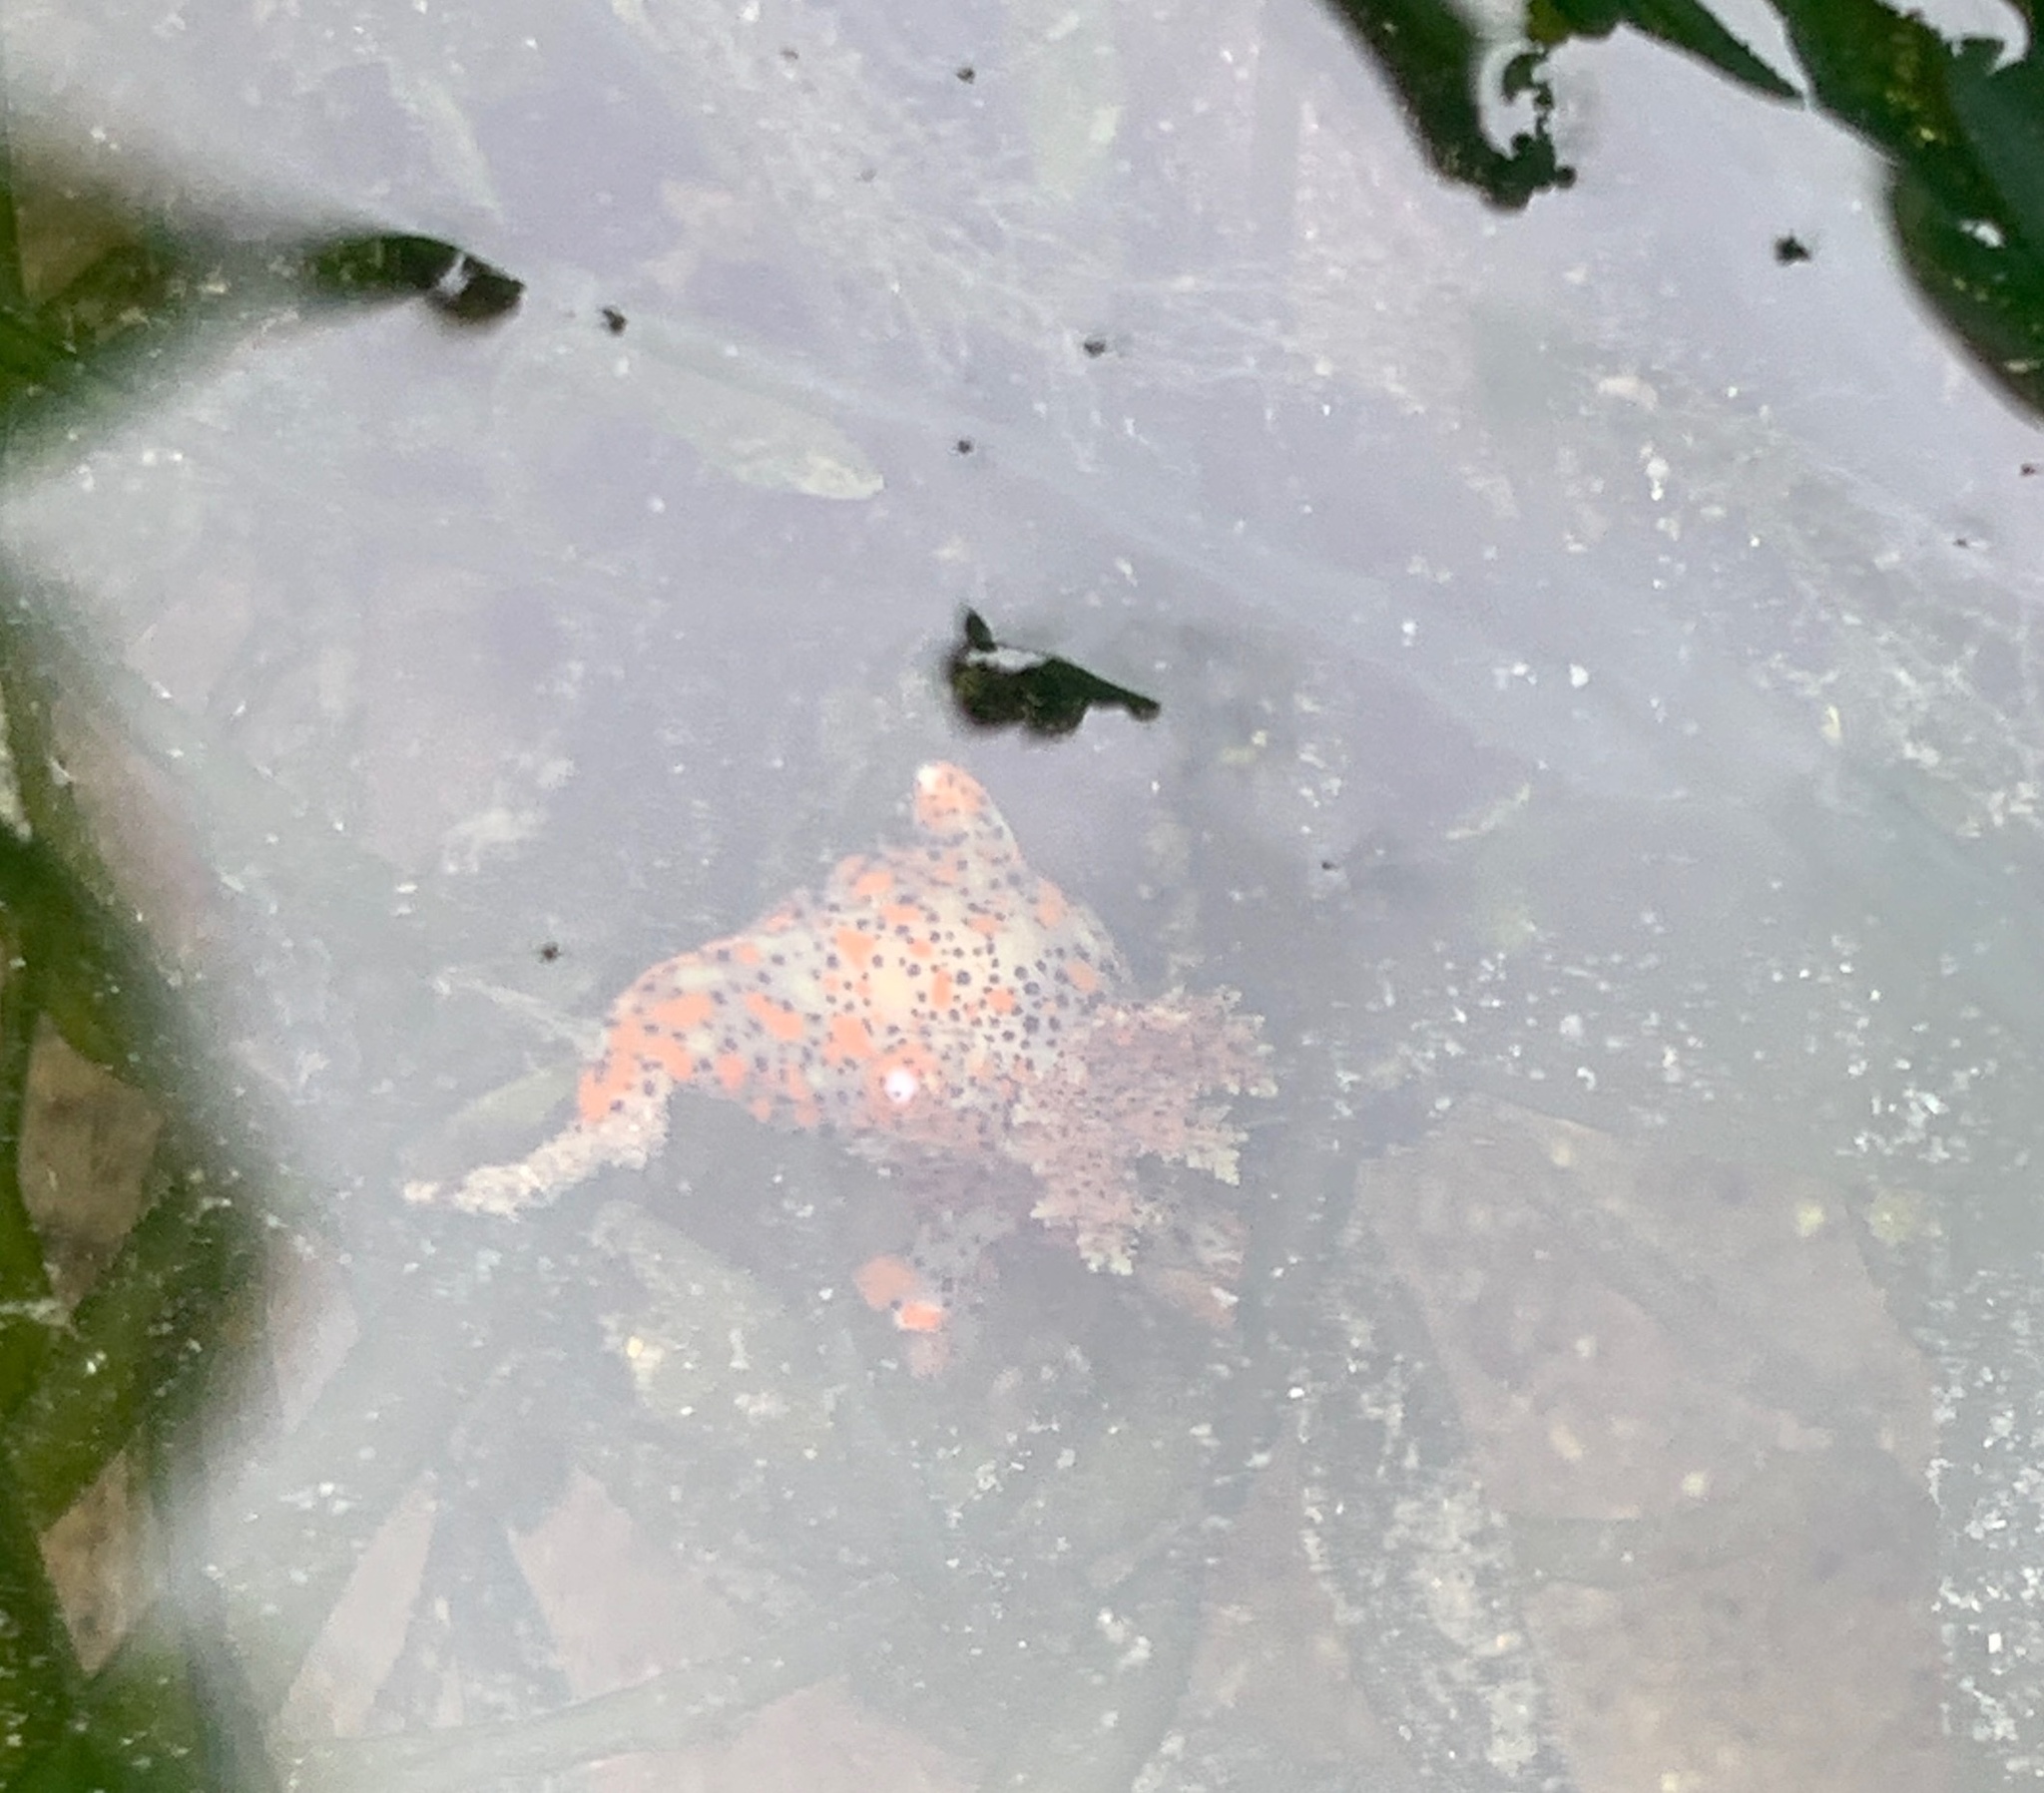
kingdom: Animalia
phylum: Mollusca
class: Gastropoda
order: Nudibranchia
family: Polyceridae
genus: Thecacera
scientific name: Thecacera pennigera
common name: Thecacera
